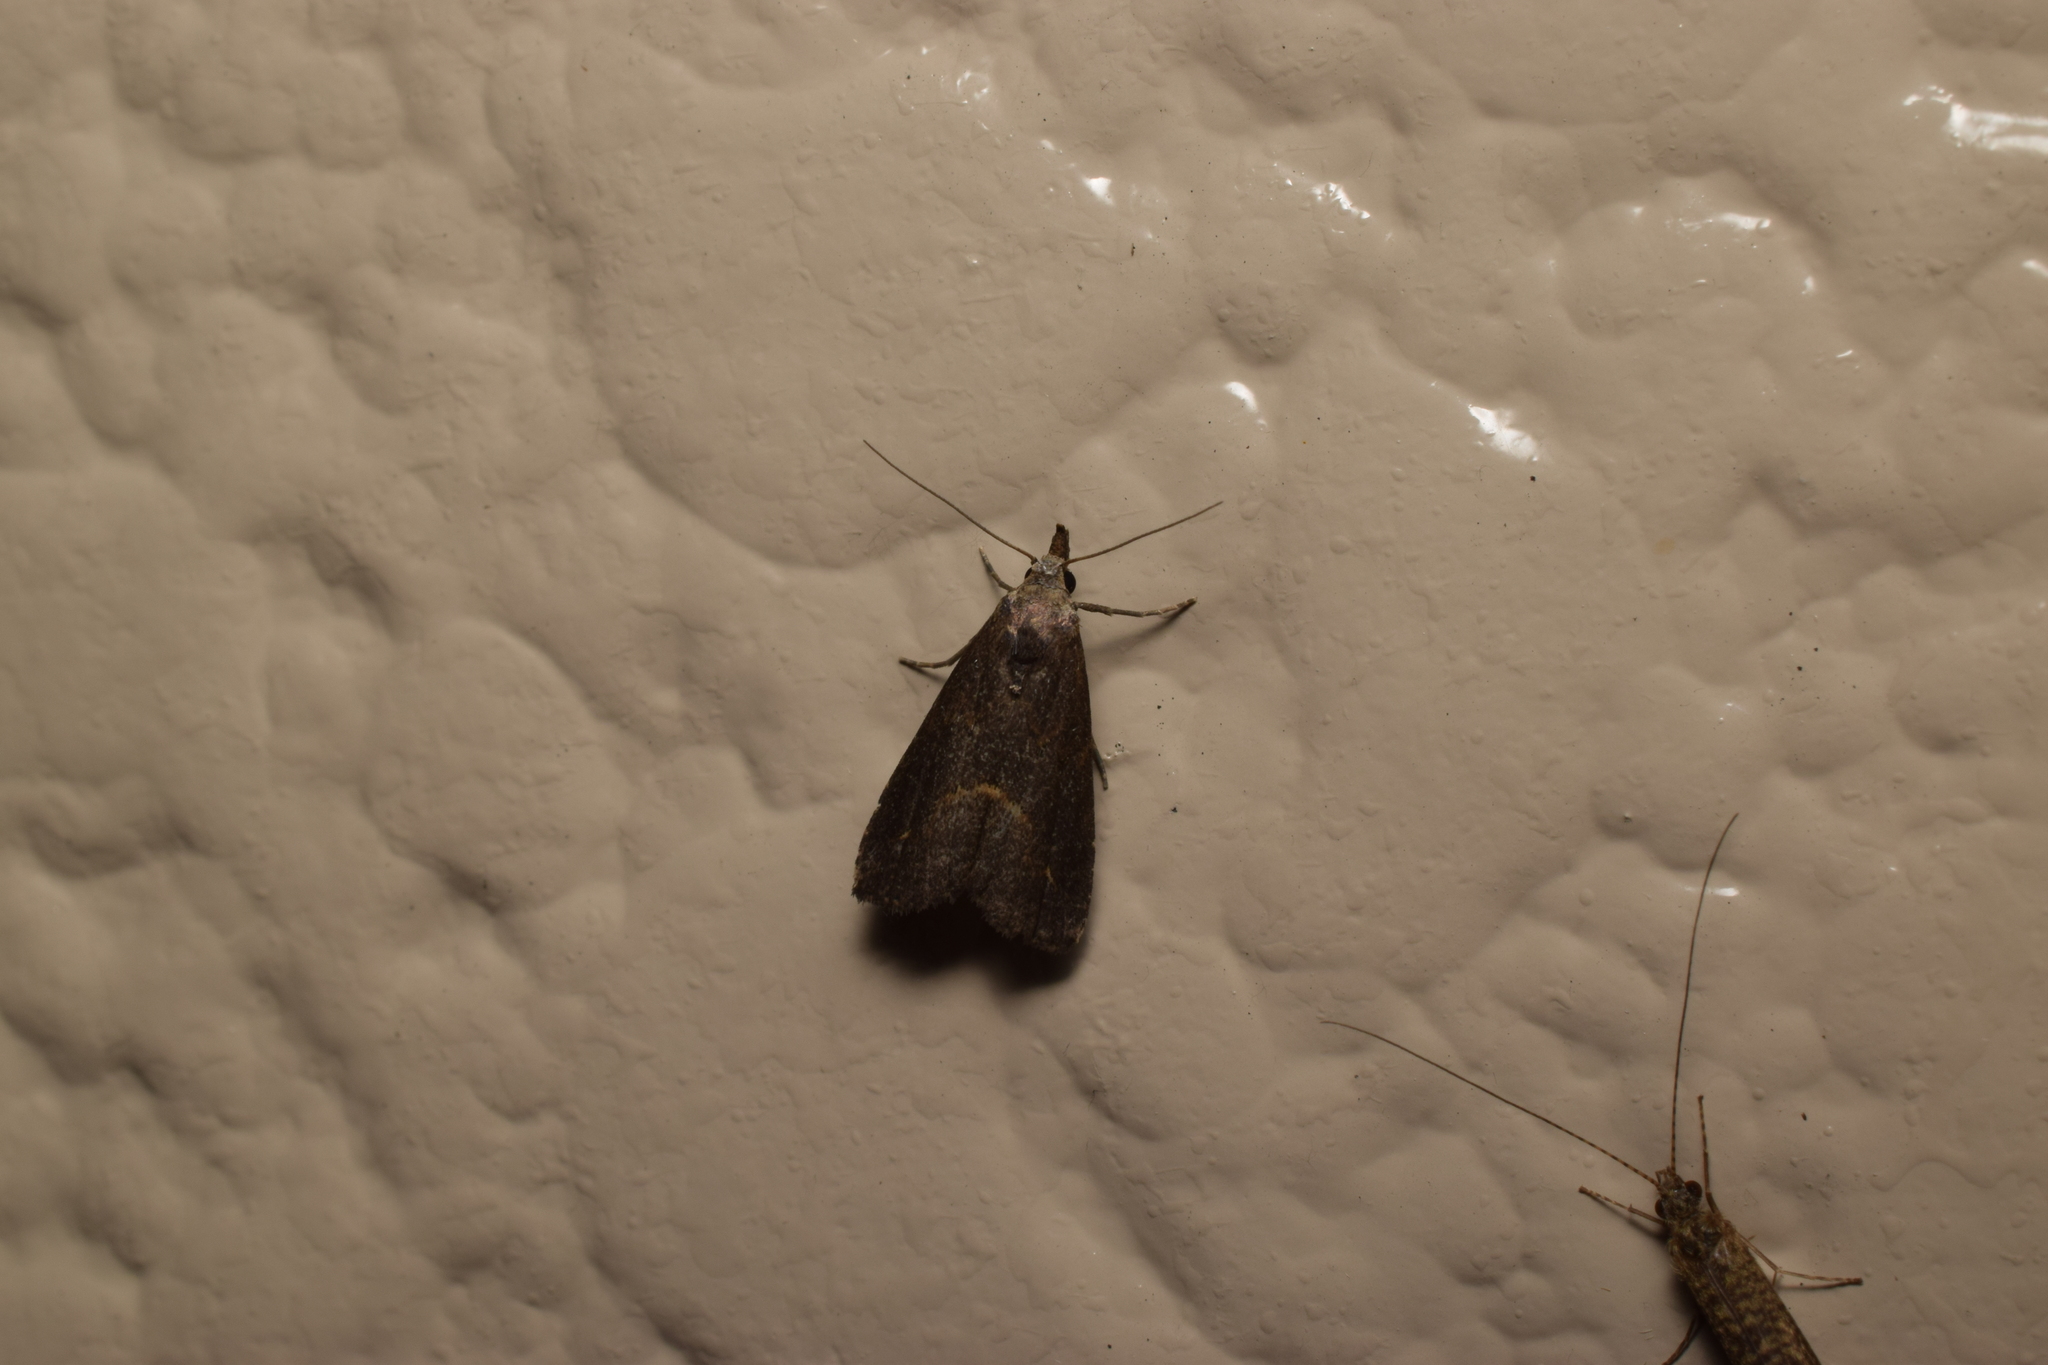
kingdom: Animalia
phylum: Arthropoda
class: Insecta
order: Lepidoptera
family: Erebidae
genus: Schrankia
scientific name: Schrankia costaestrigalis
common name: Pinion-streaked snout
